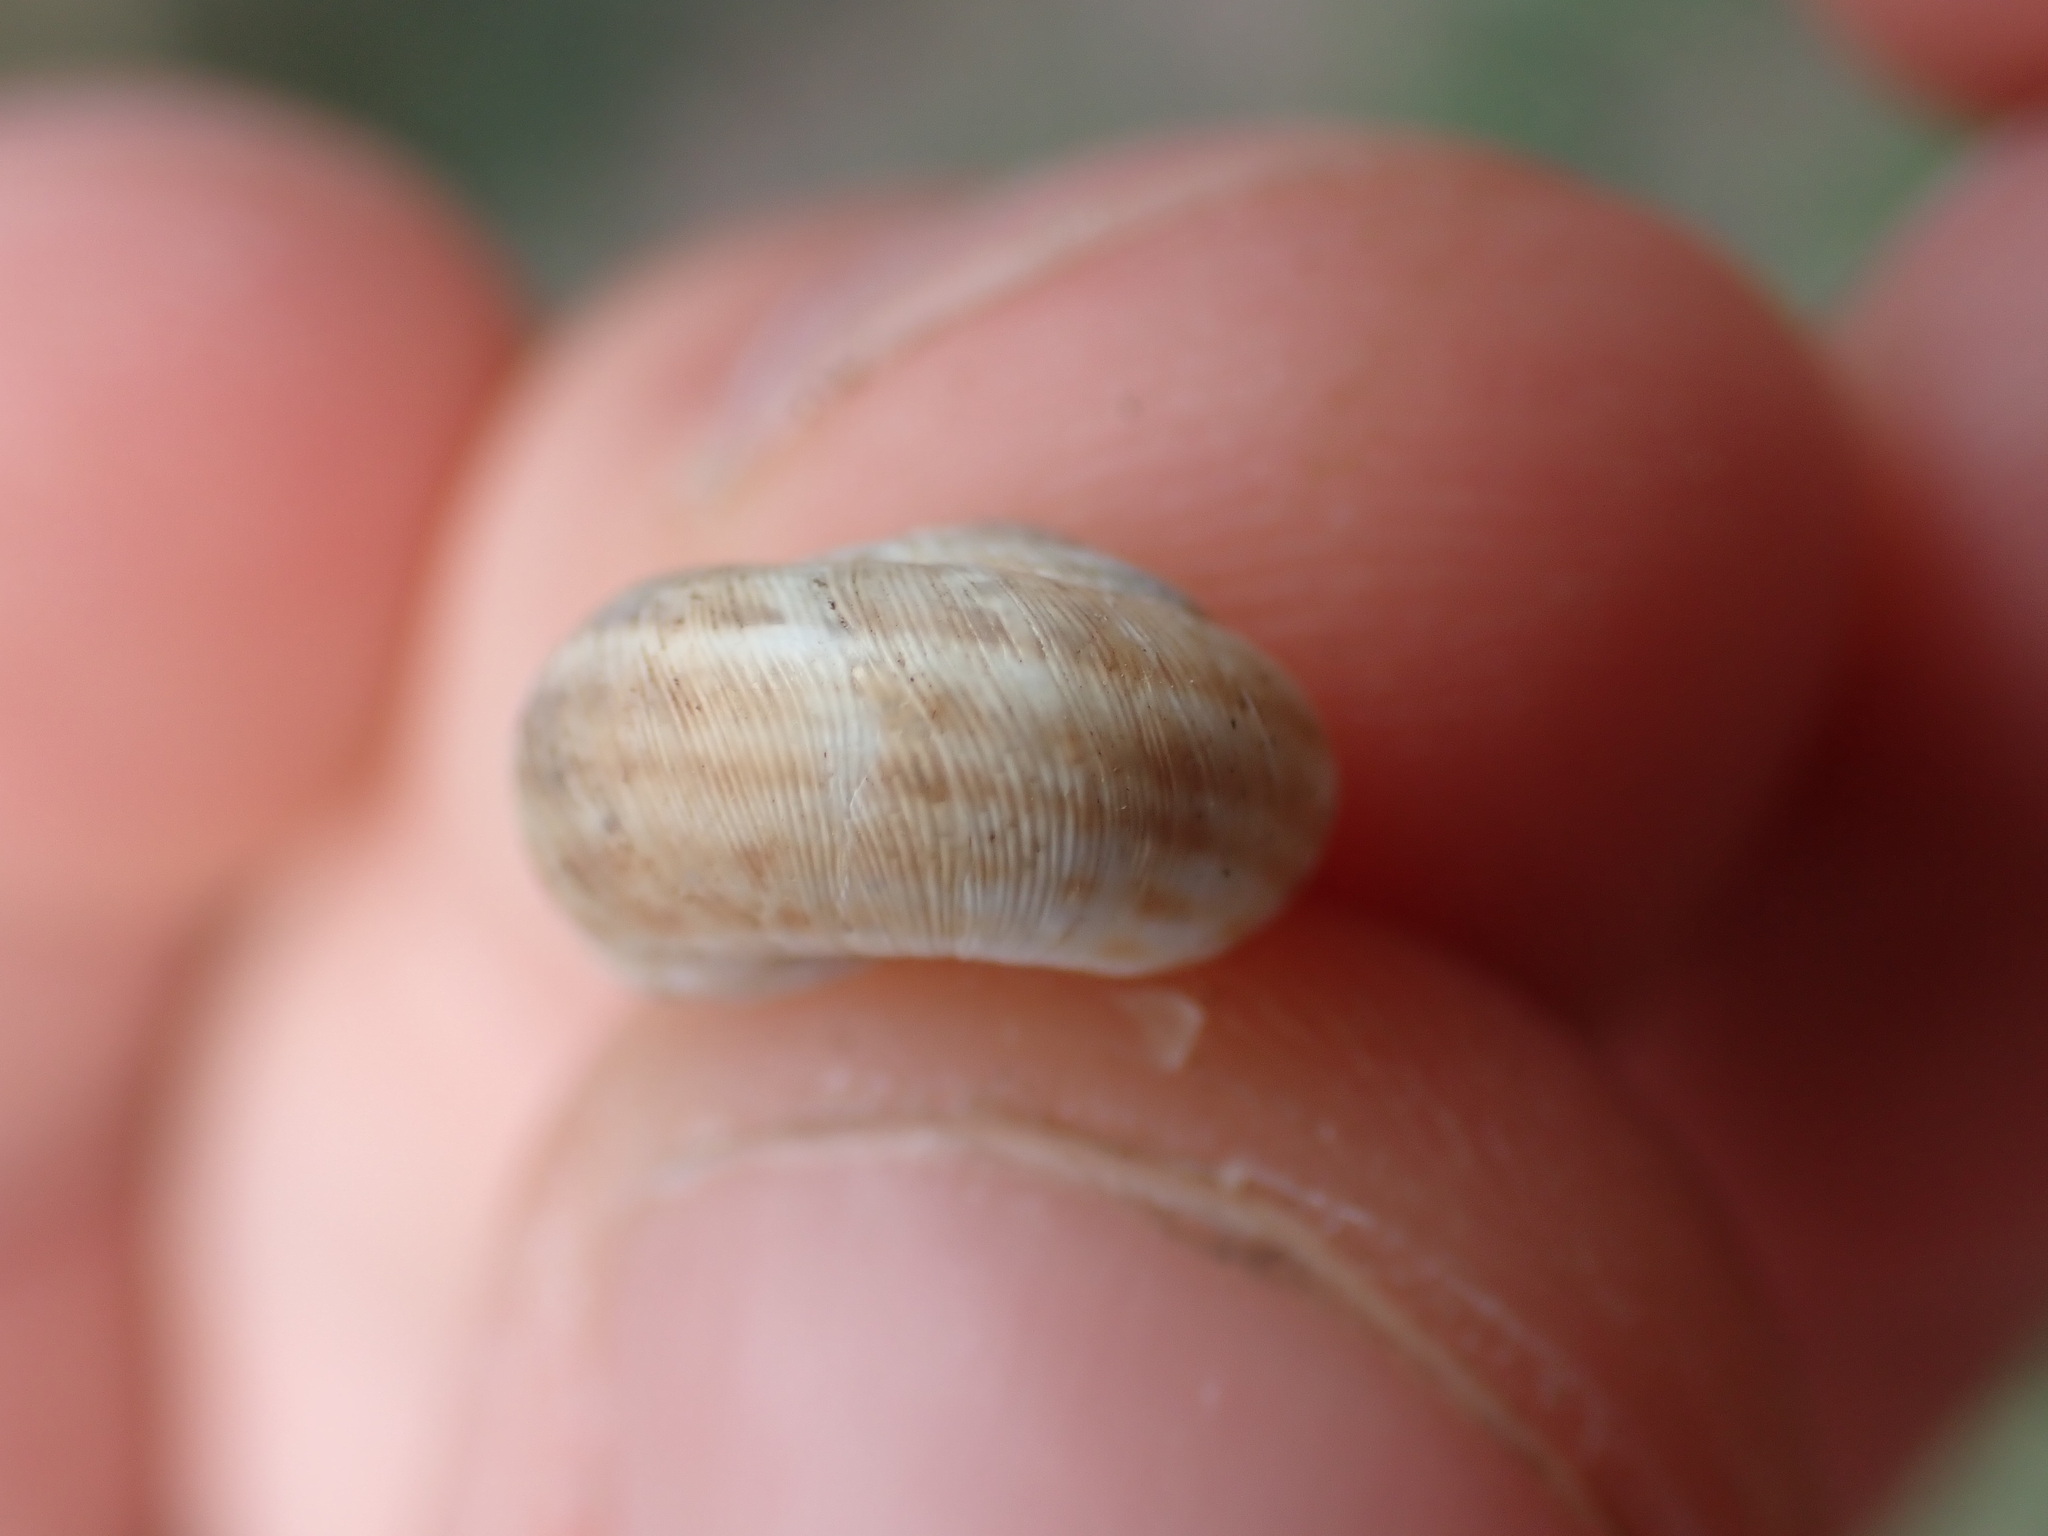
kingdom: Animalia
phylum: Mollusca
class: Gastropoda
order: Stylommatophora
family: Geomitridae
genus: Backeljaia
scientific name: Backeljaia gigaxii
